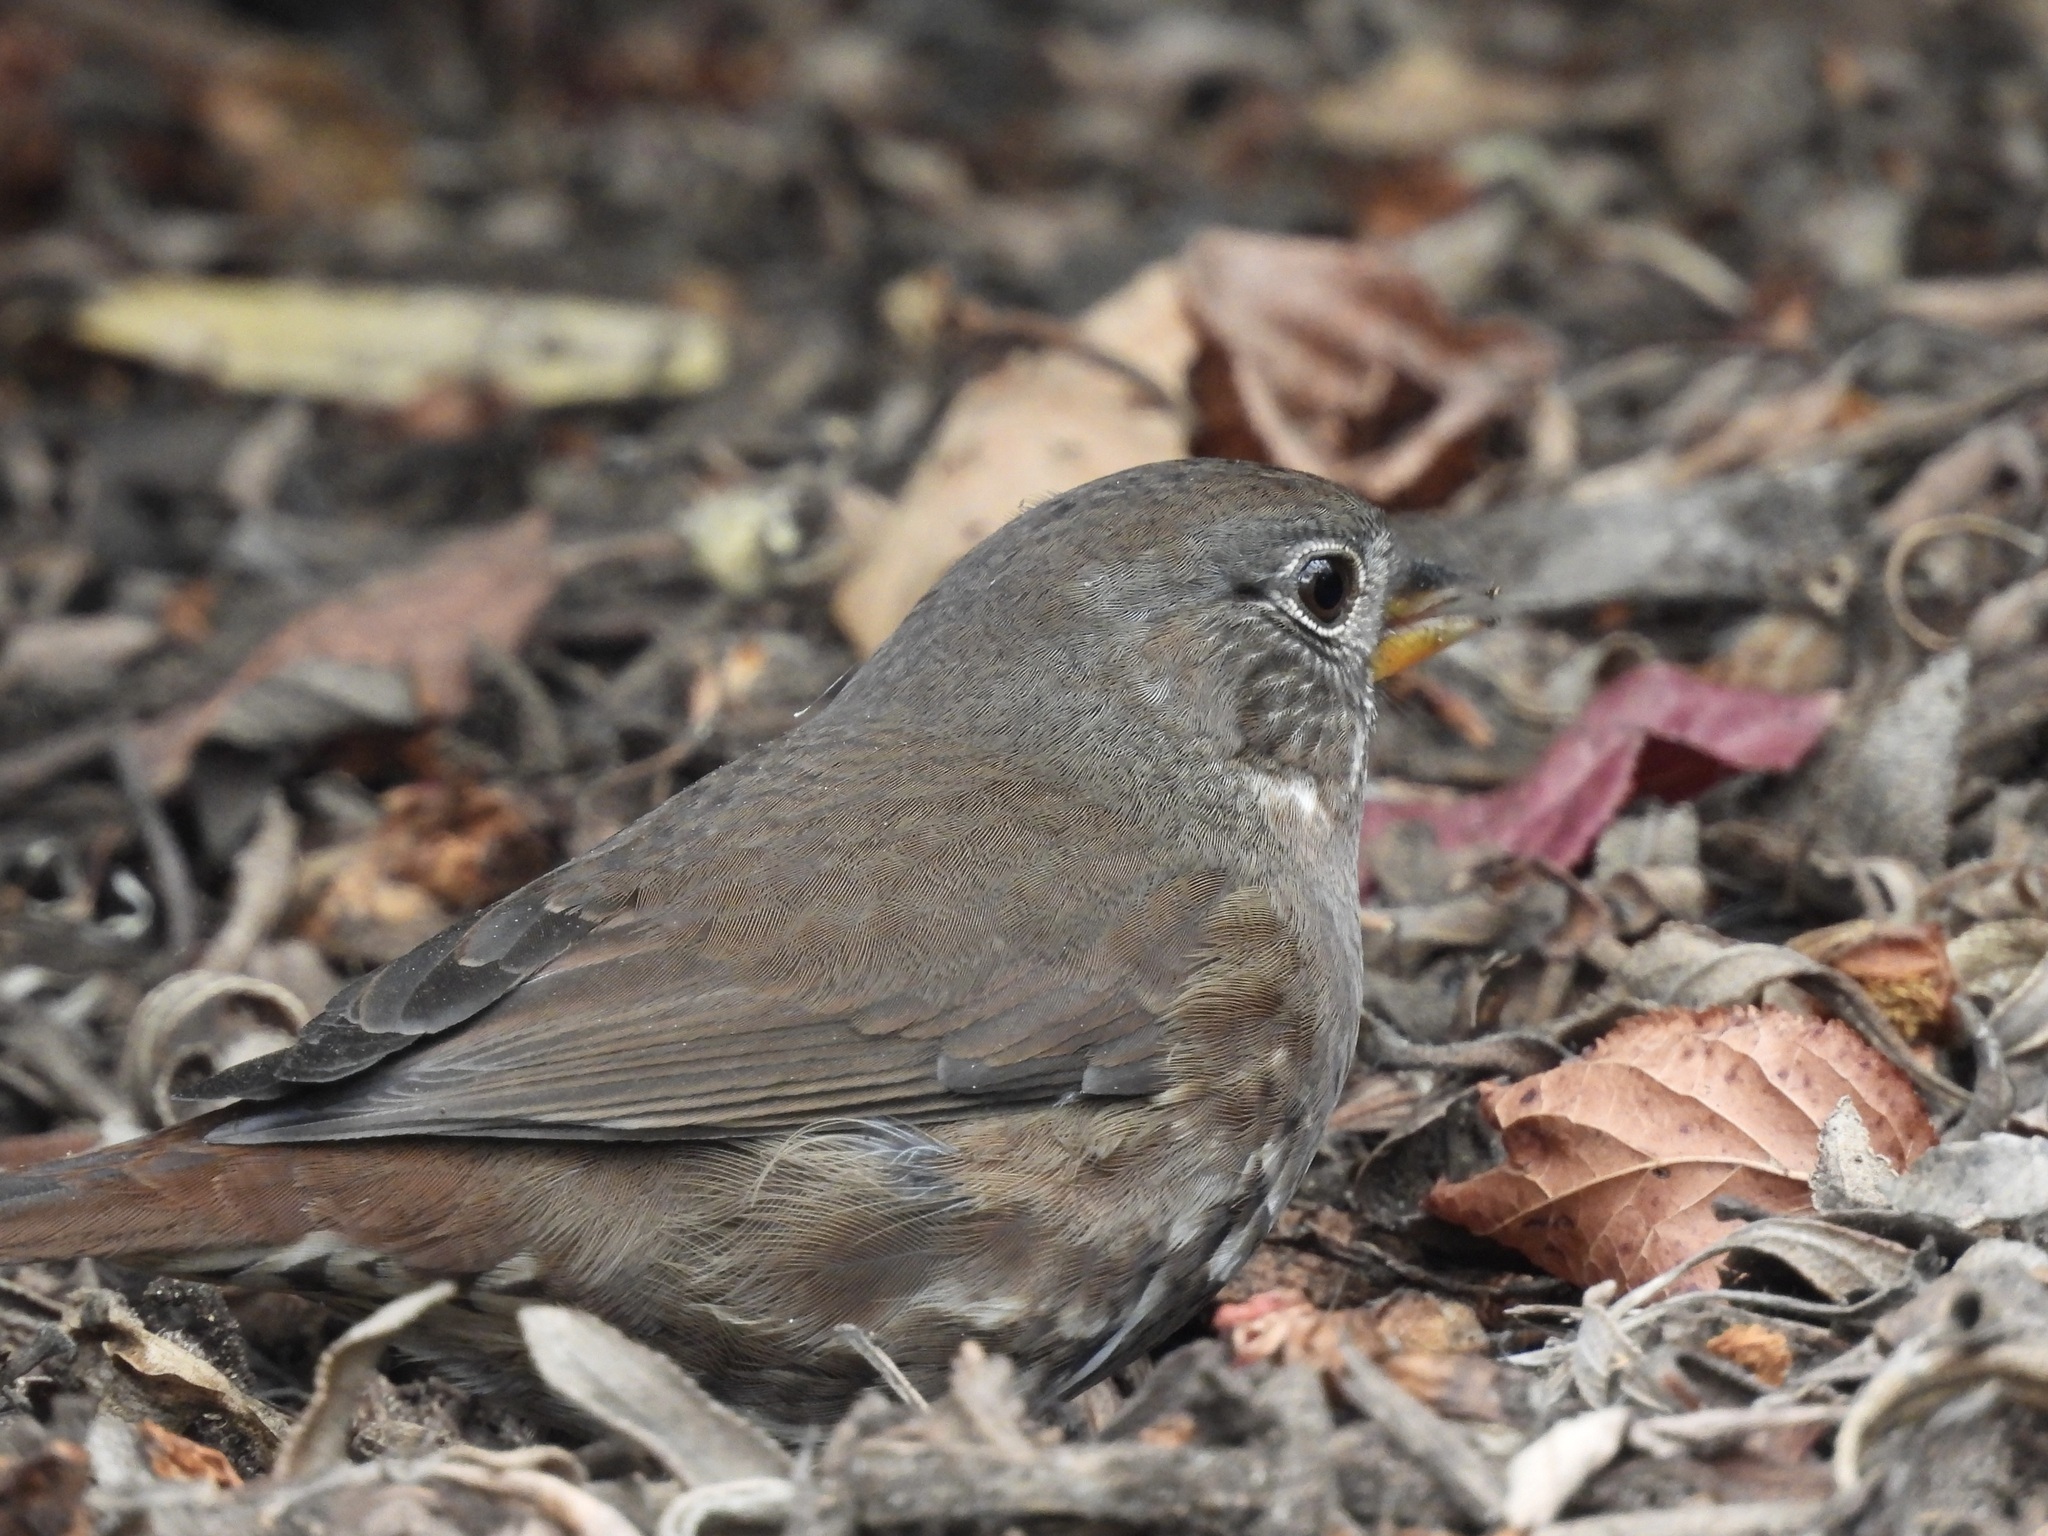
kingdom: Animalia
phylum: Chordata
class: Aves
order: Passeriformes
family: Passerellidae
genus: Passerella
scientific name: Passerella iliaca
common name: Fox sparrow
